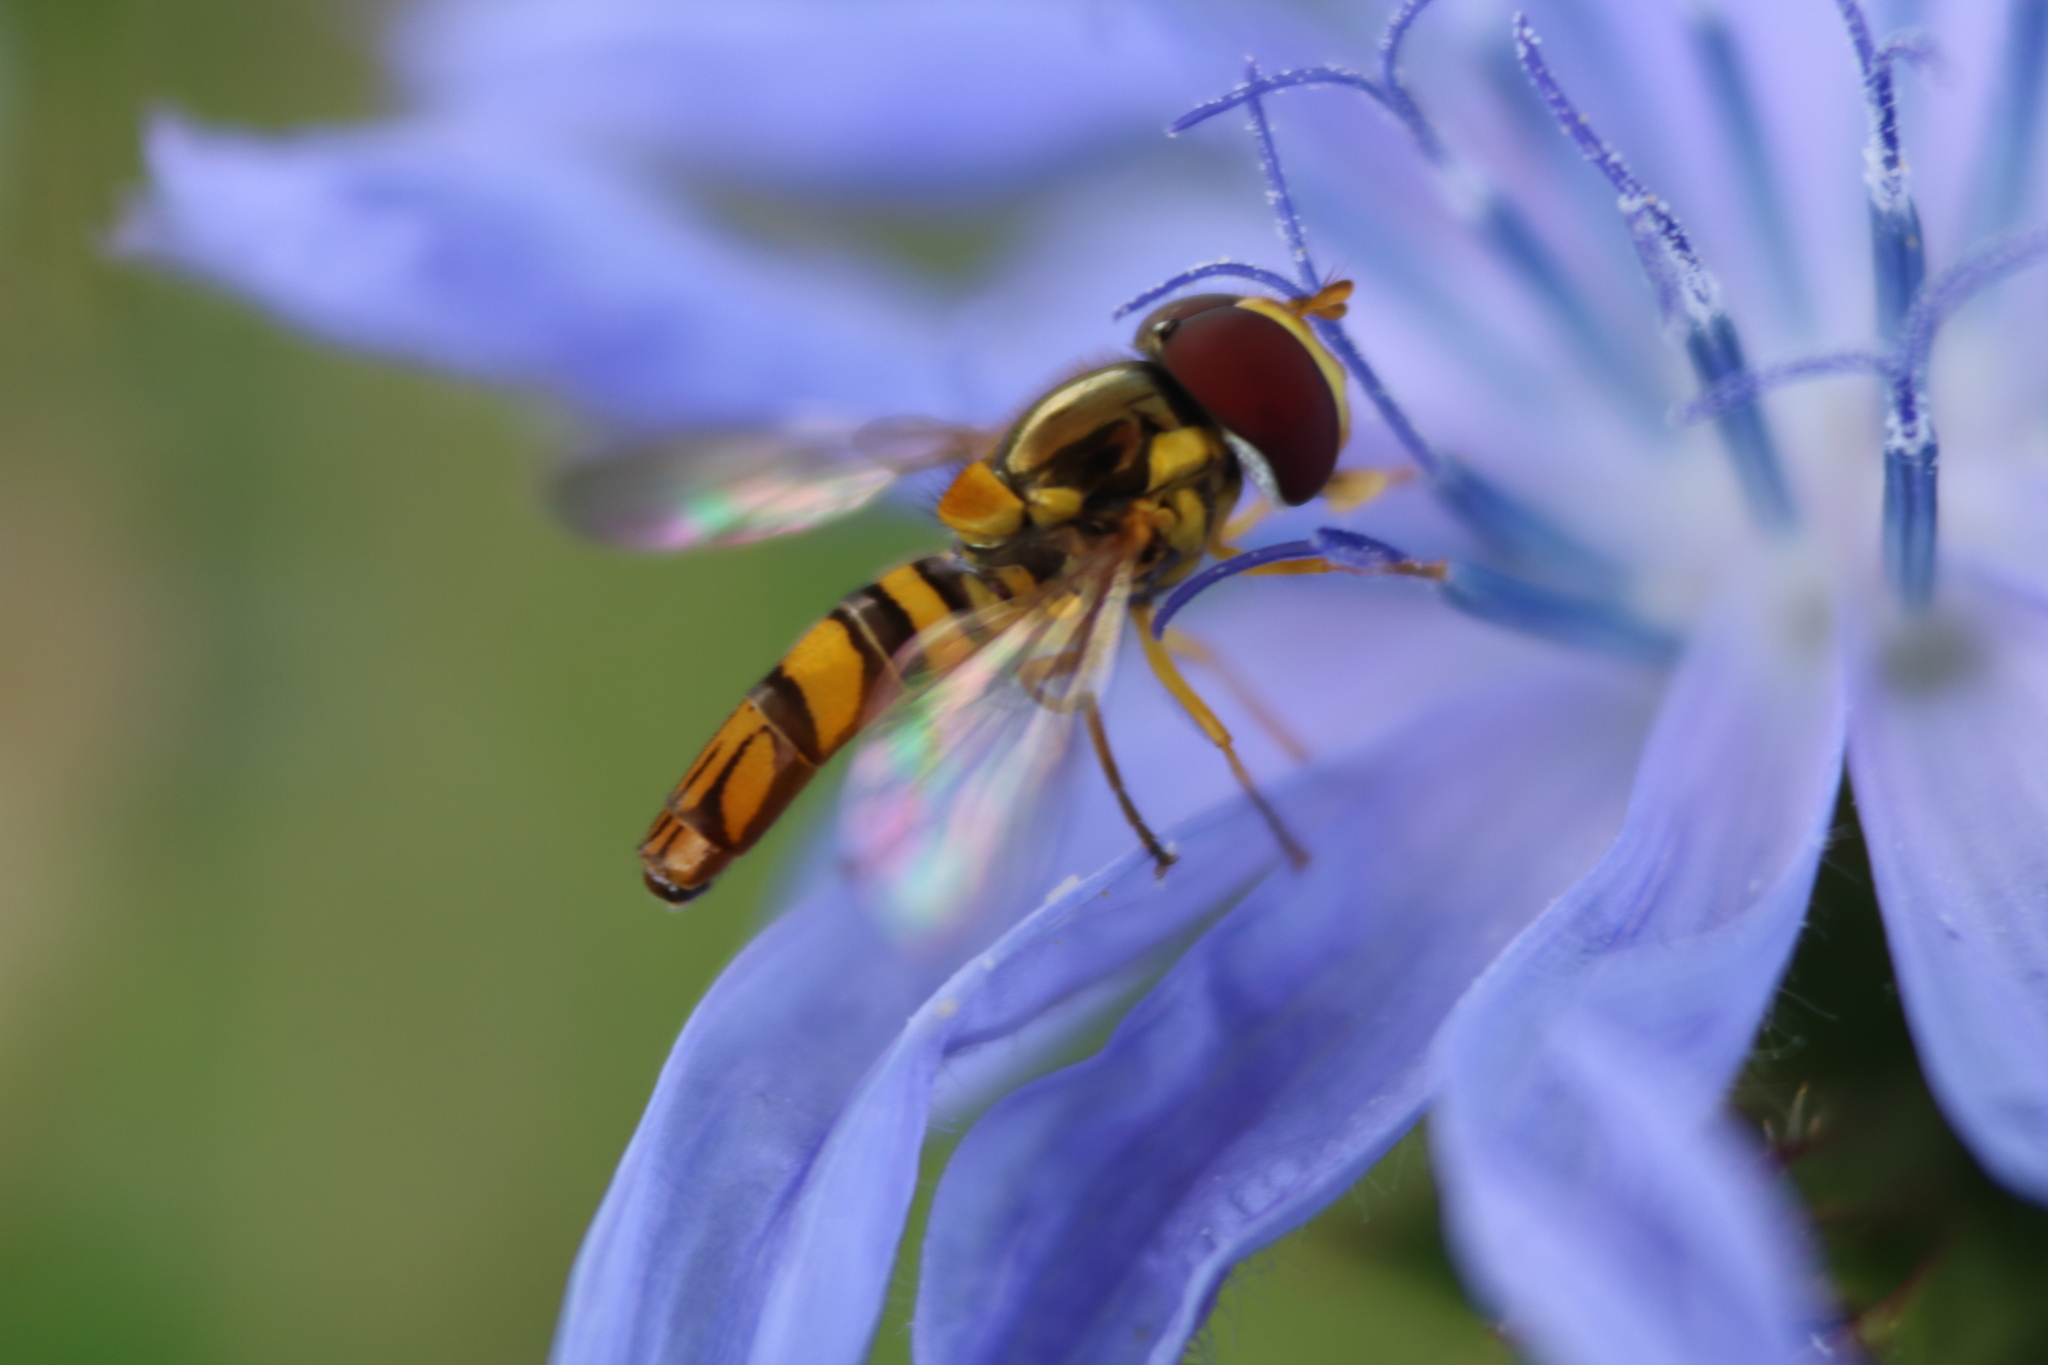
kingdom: Animalia
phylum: Arthropoda
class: Insecta
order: Diptera
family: Syrphidae
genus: Allograpta
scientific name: Allograpta obliqua
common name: Common oblique syrphid
